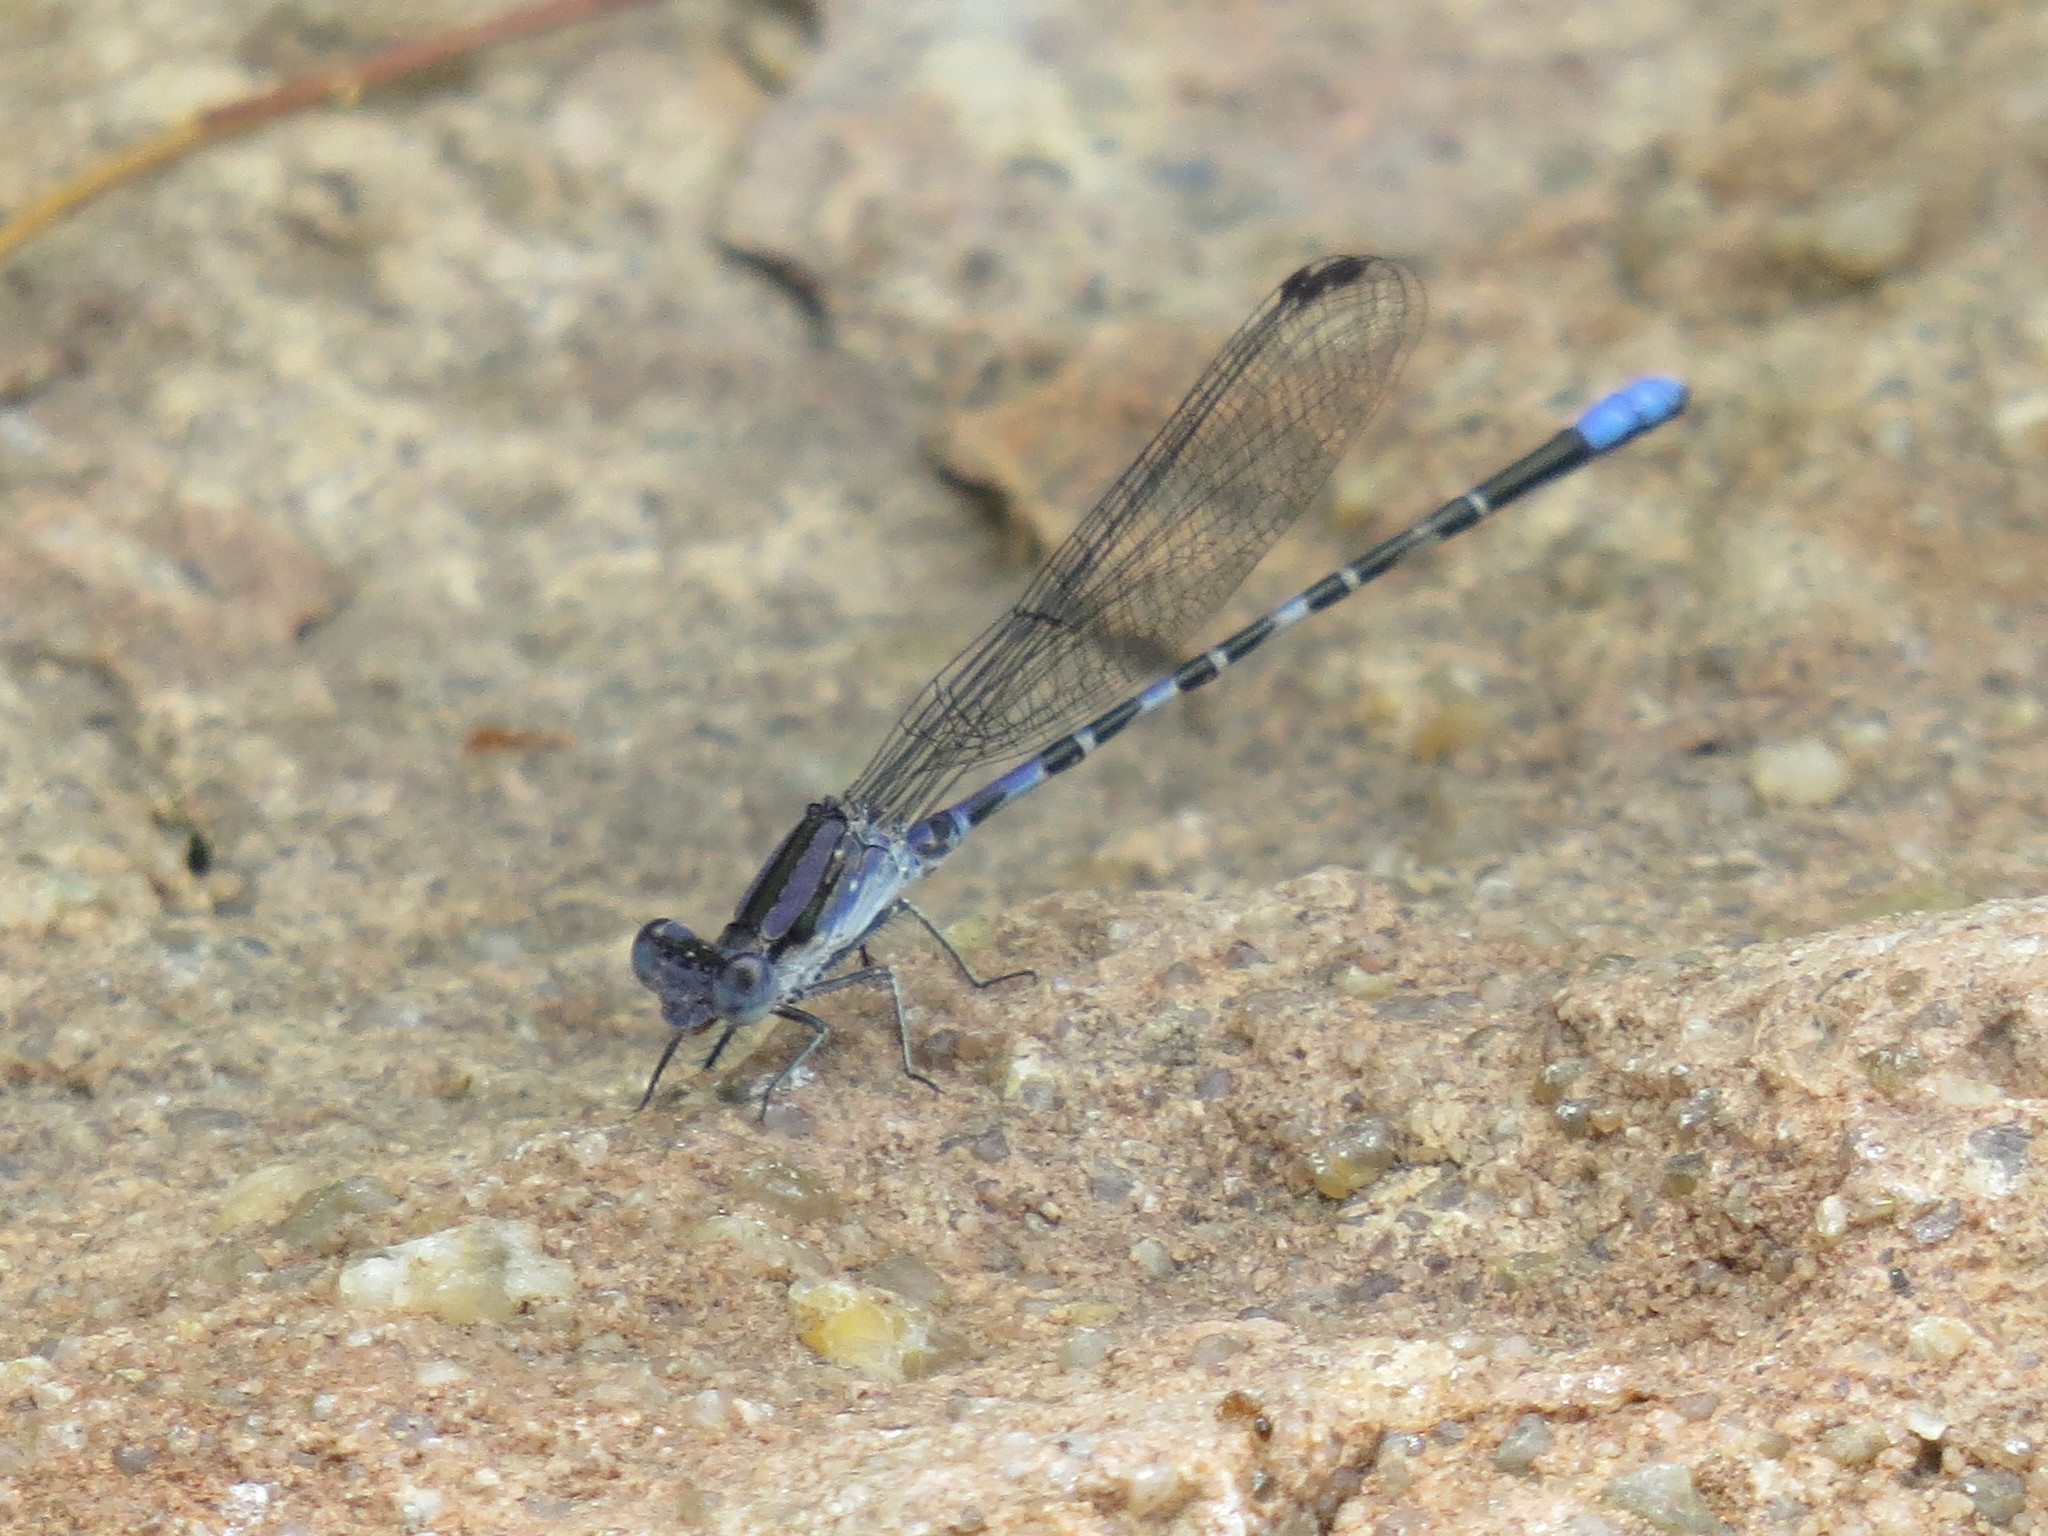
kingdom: Animalia
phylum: Arthropoda
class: Insecta
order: Odonata
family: Coenagrionidae
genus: Argia
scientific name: Argia immunda
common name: Kiowa dancer
